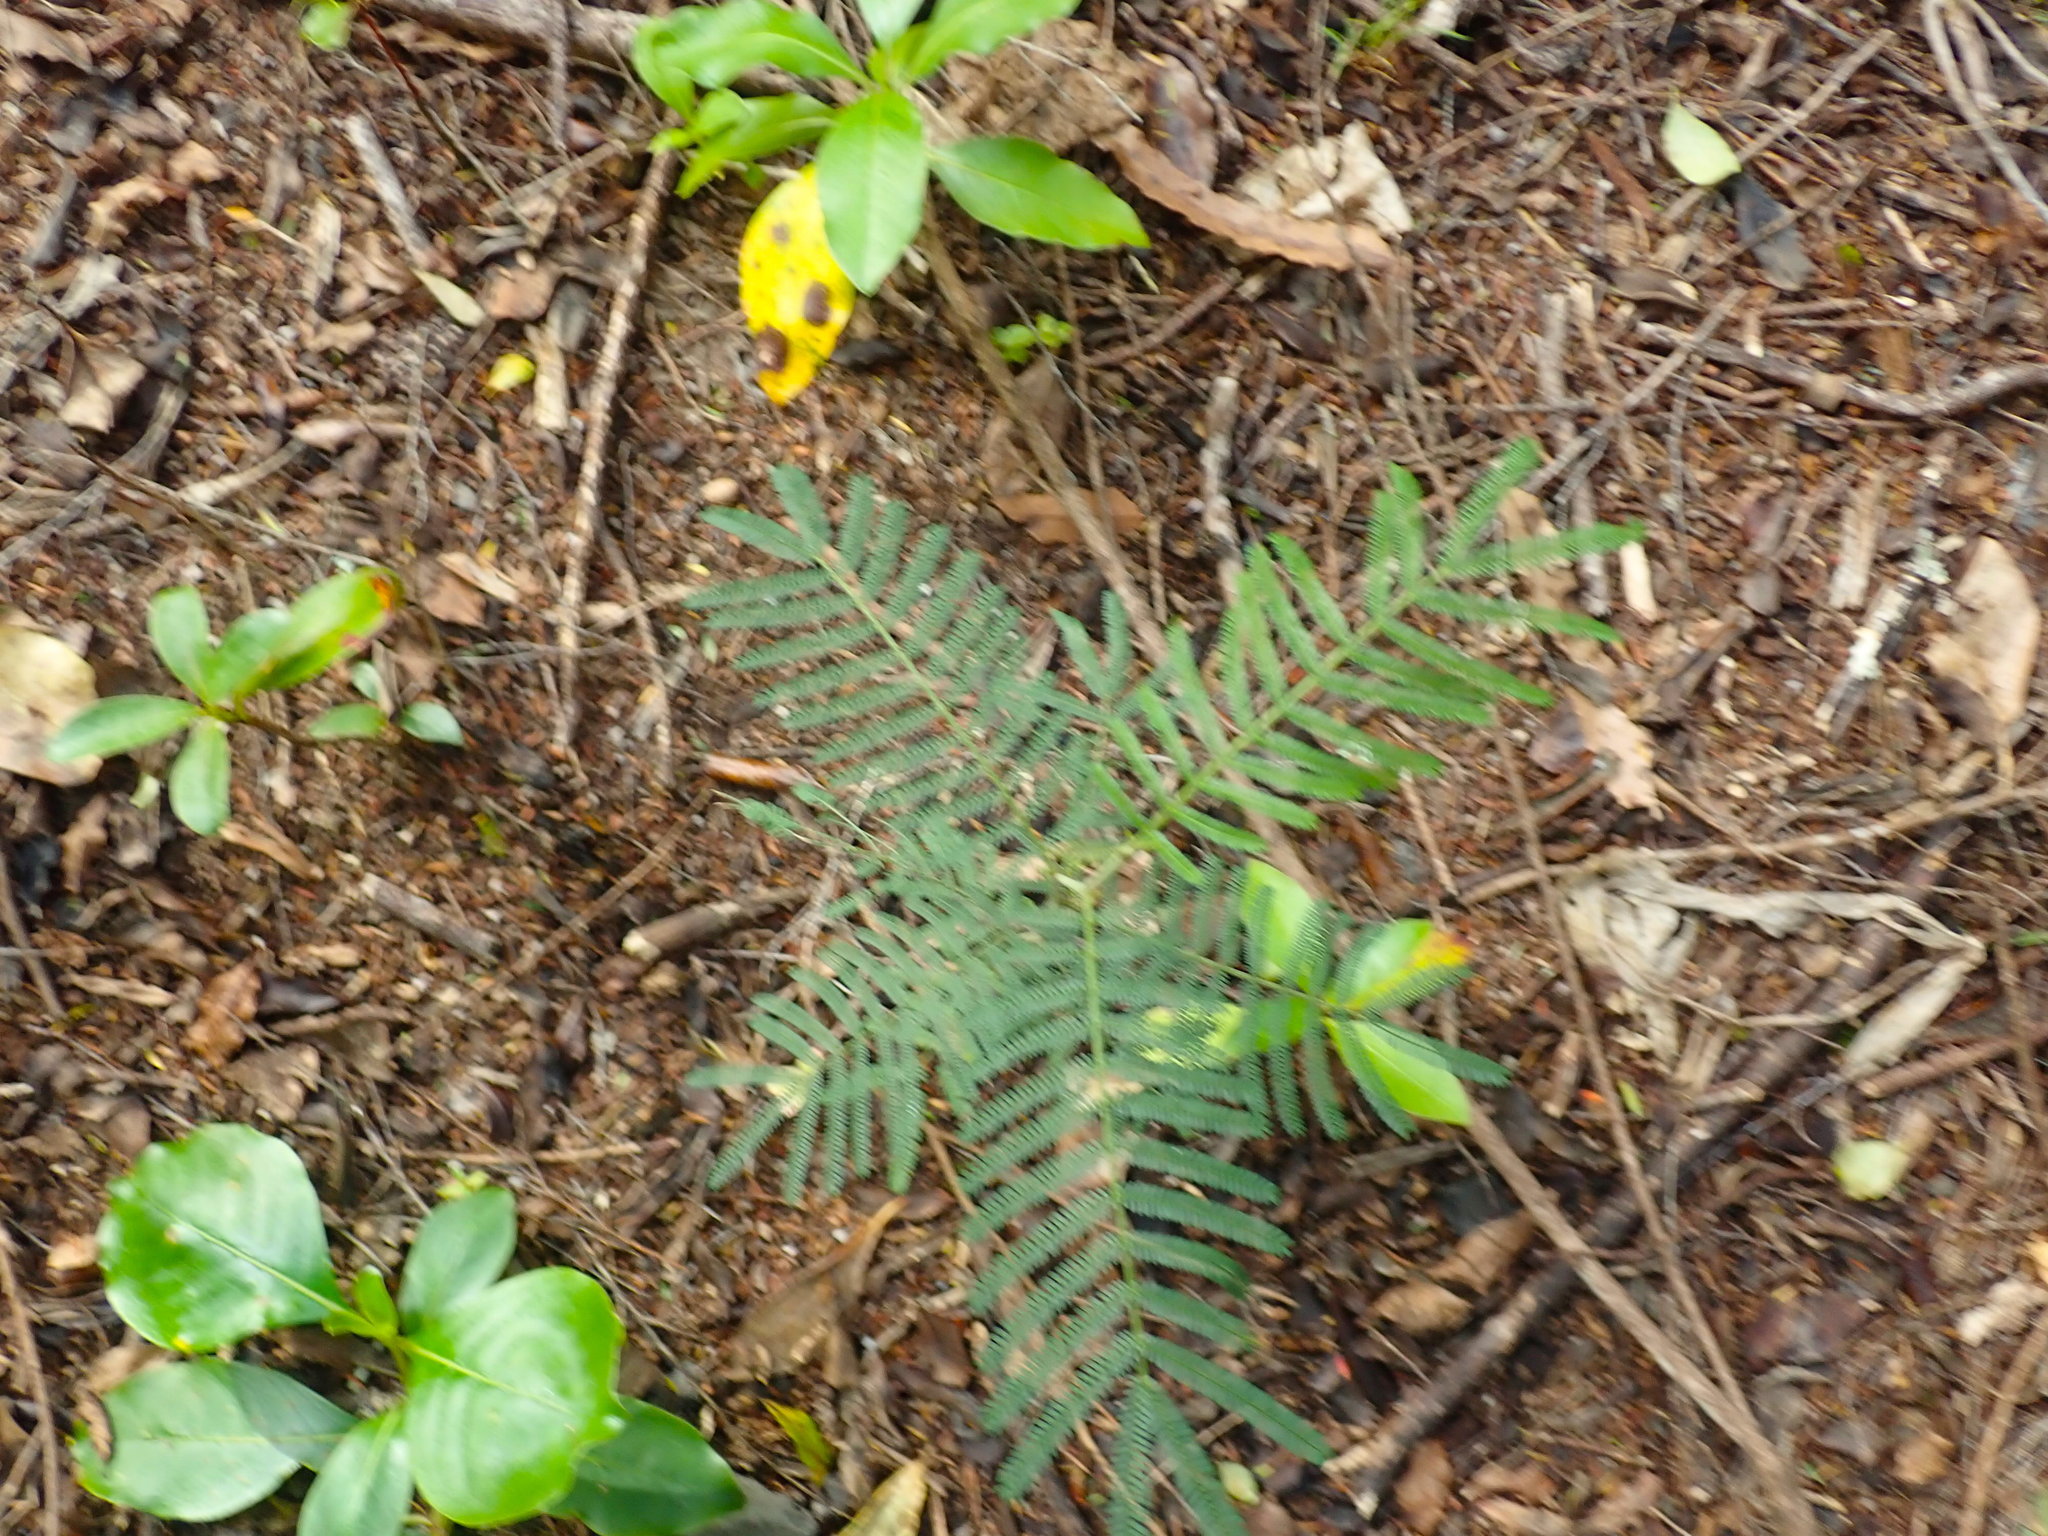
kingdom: Plantae
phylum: Tracheophyta
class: Magnoliopsida
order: Fabales
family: Fabaceae
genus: Acacia
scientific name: Acacia mearnsii
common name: Black wattle
